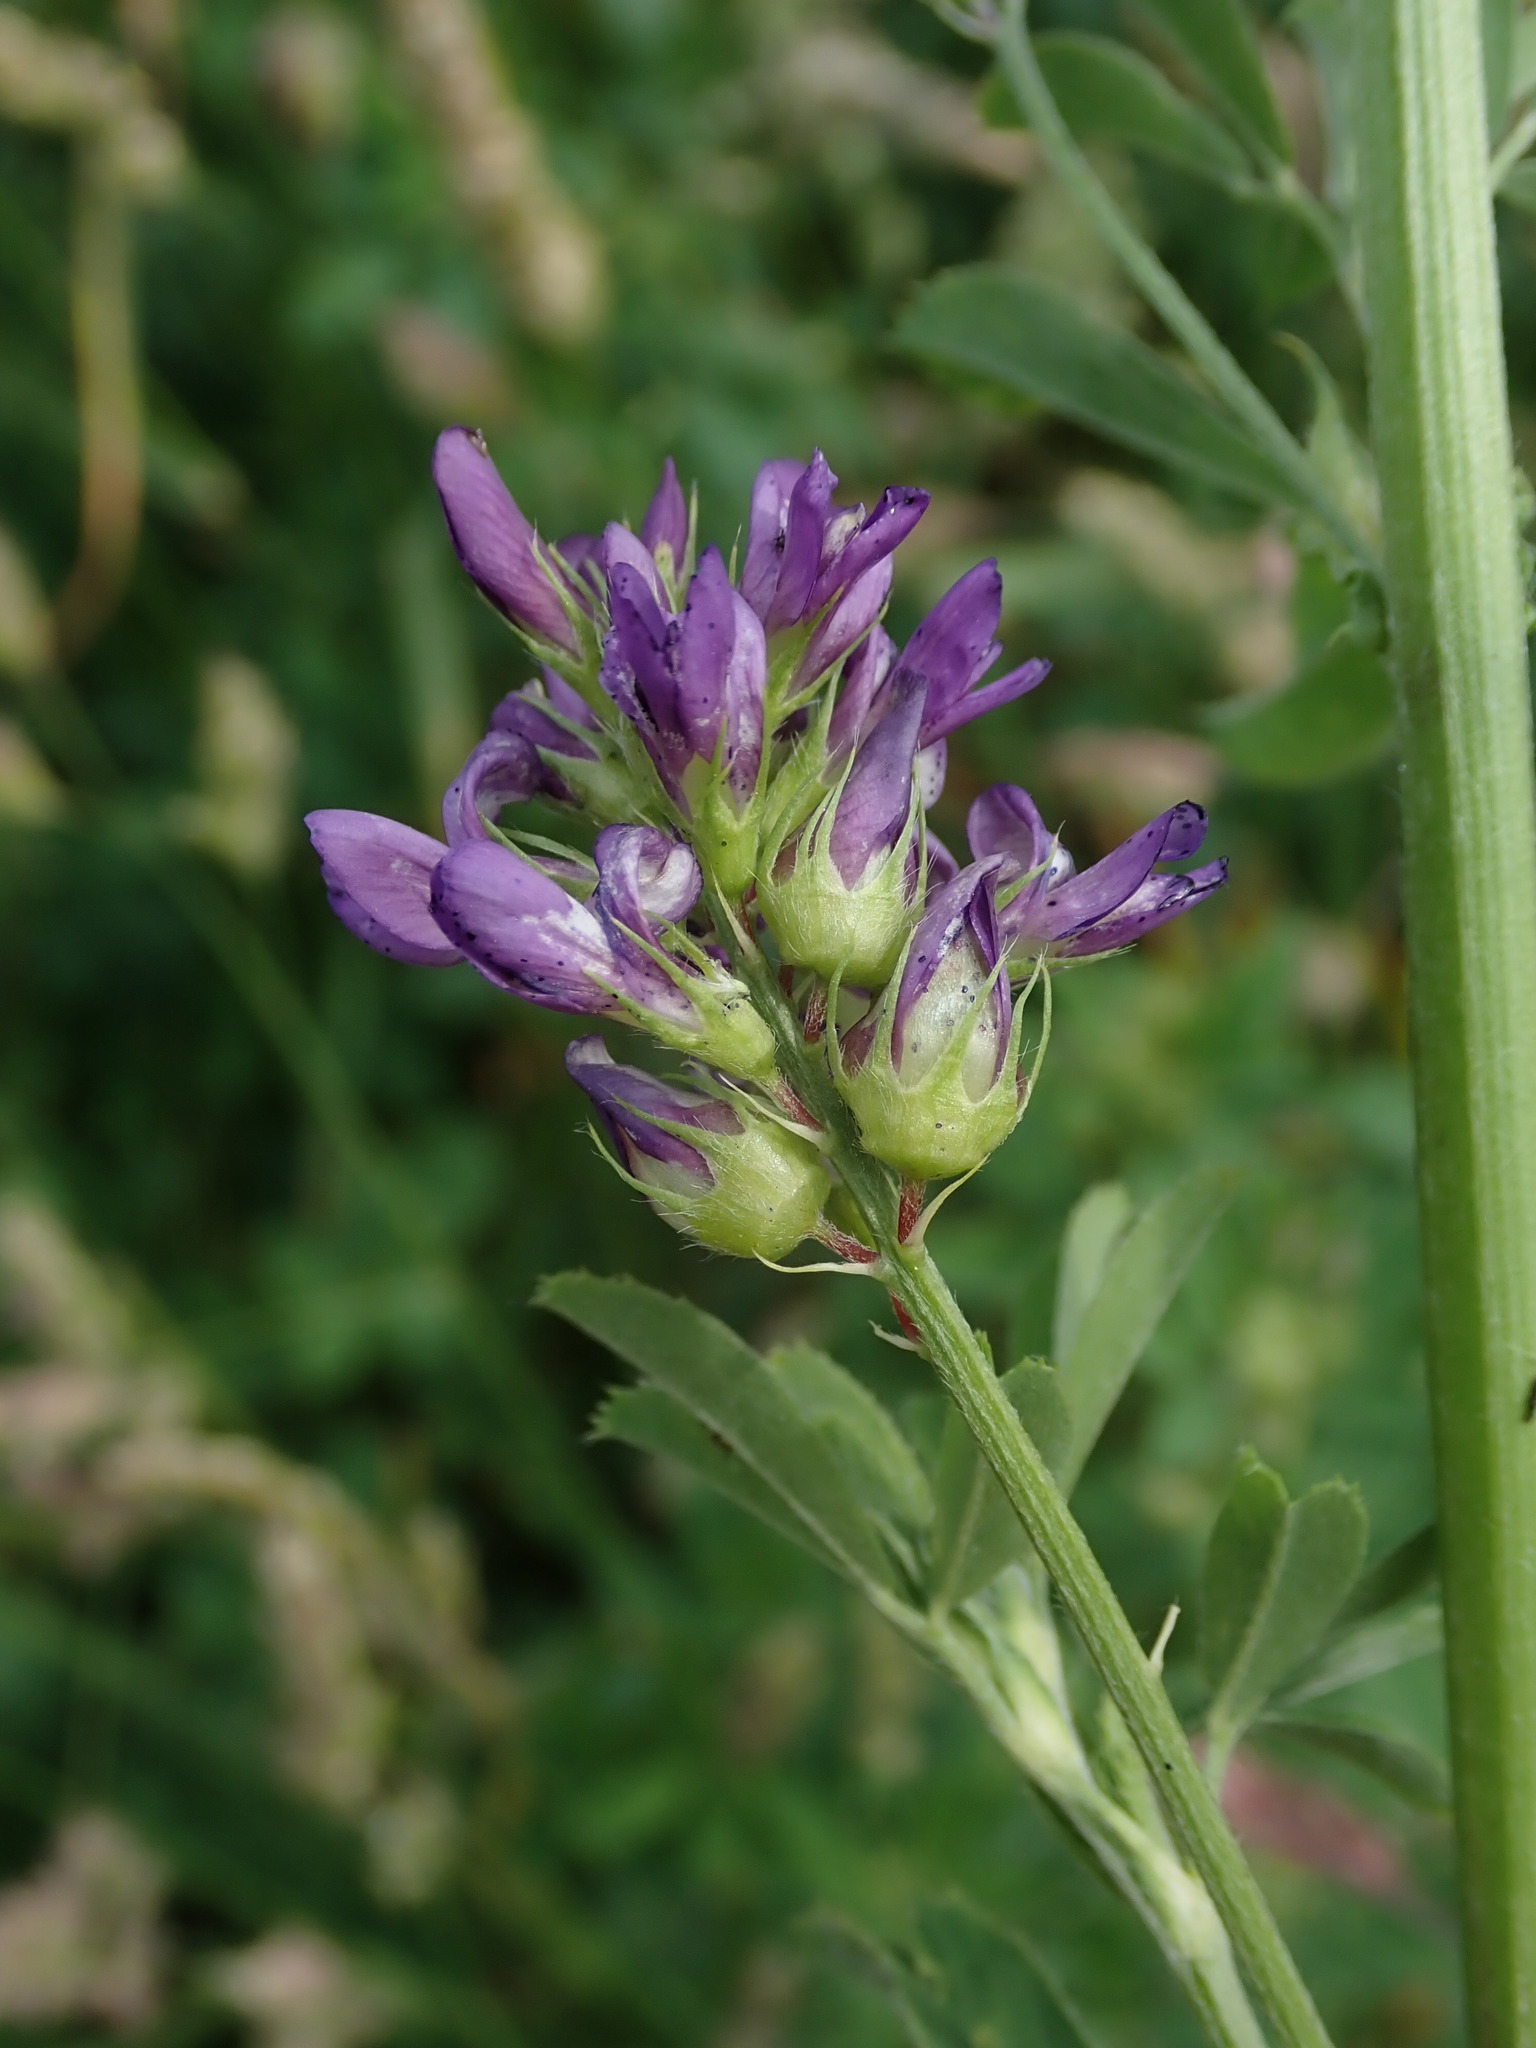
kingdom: Plantae
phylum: Tracheophyta
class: Magnoliopsida
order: Fabales
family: Fabaceae
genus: Medicago
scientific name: Medicago sativa
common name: Alfalfa
